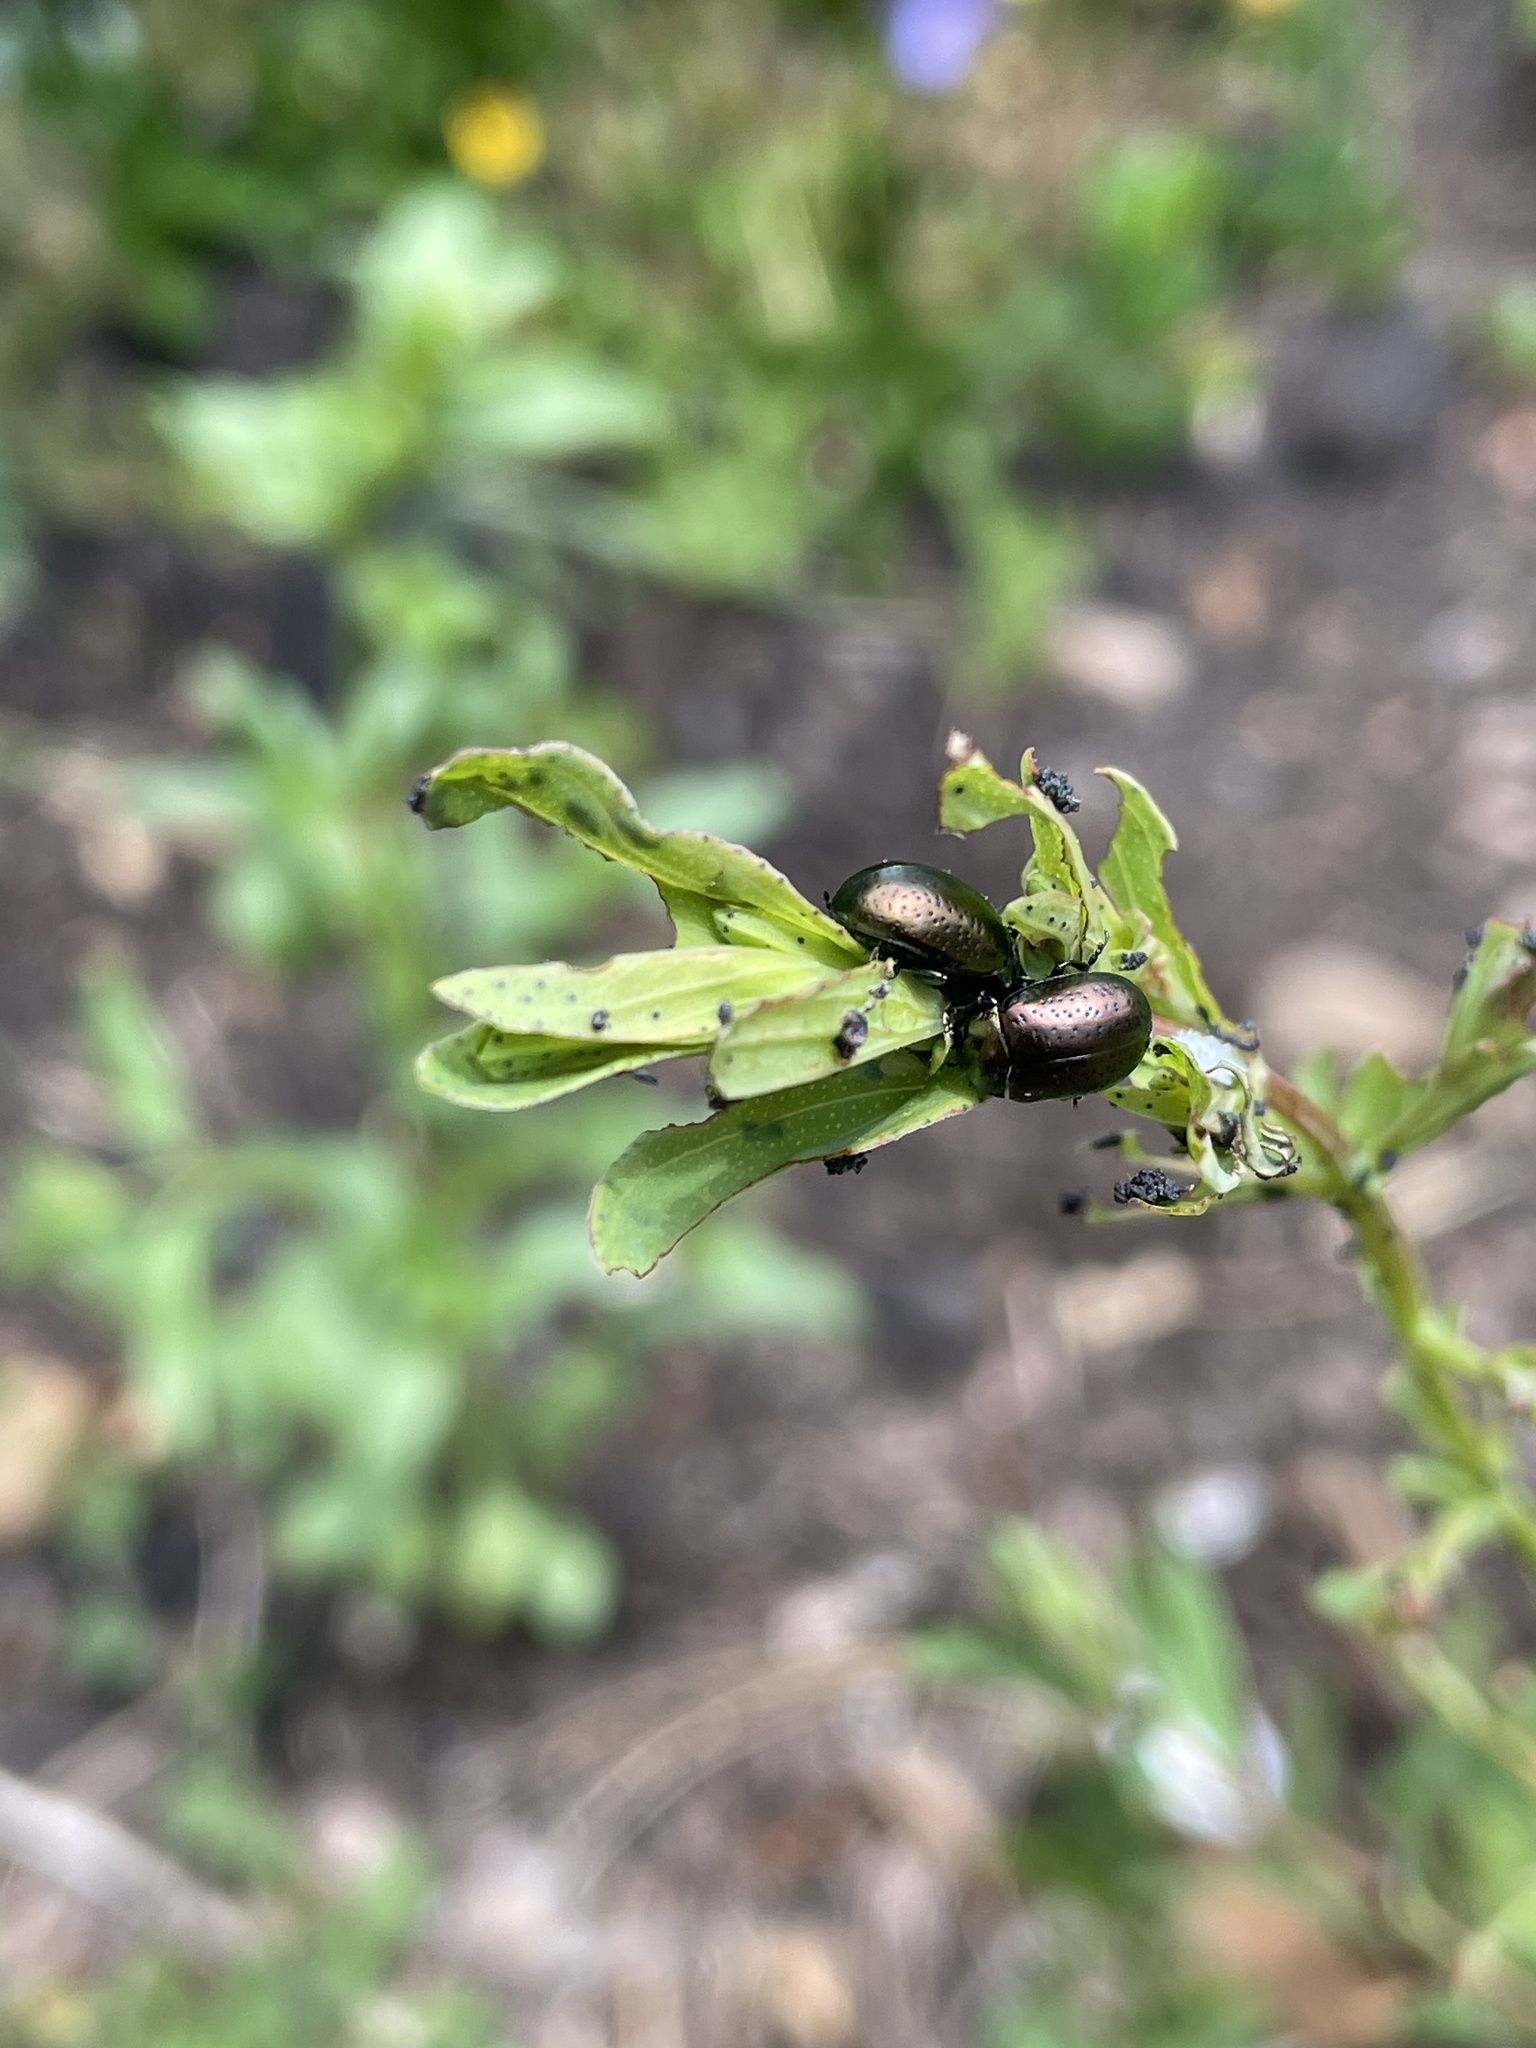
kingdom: Animalia
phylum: Arthropoda
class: Insecta
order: Coleoptera
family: Chrysomelidae
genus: Chrysolina
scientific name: Chrysolina hyperici
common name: St. johnswort beetle
